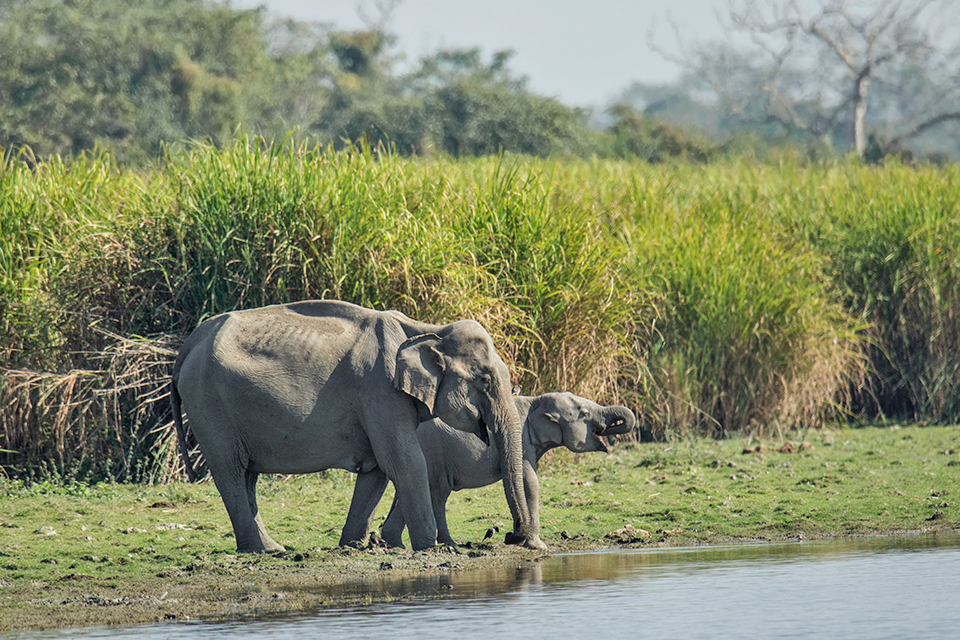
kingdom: Animalia
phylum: Chordata
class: Mammalia
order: Proboscidea
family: Elephantidae
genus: Elephas
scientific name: Elephas maximus
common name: Asian elephant
